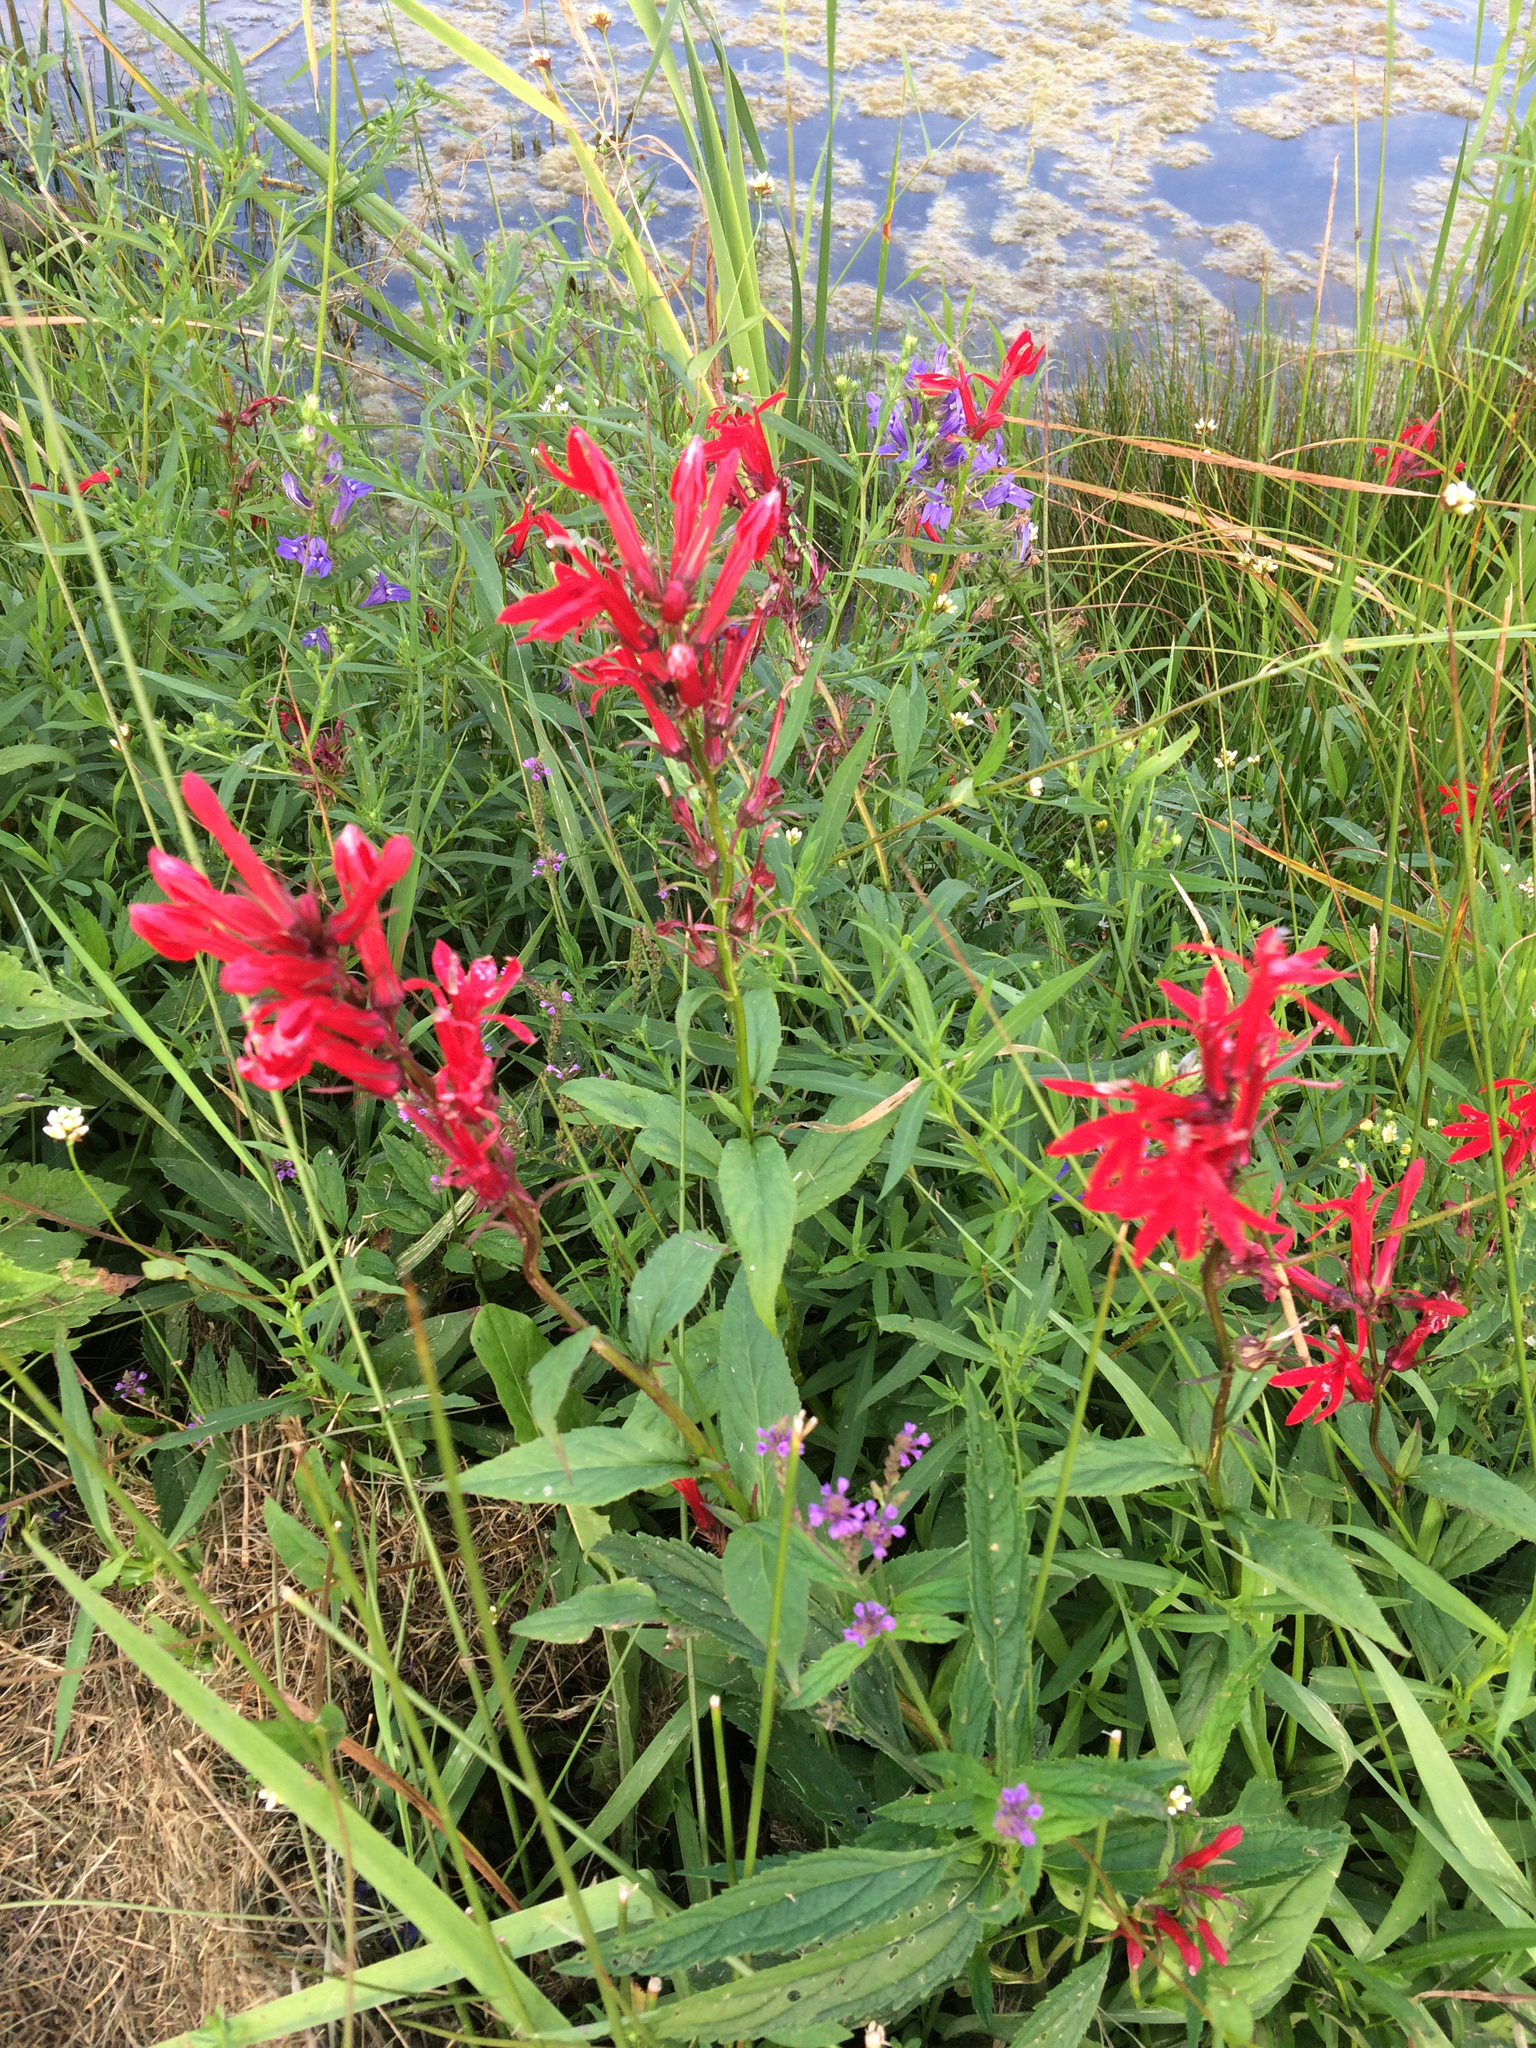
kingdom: Plantae
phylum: Tracheophyta
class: Magnoliopsida
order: Asterales
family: Campanulaceae
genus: Lobelia
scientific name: Lobelia cardinalis
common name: Cardinal flower
